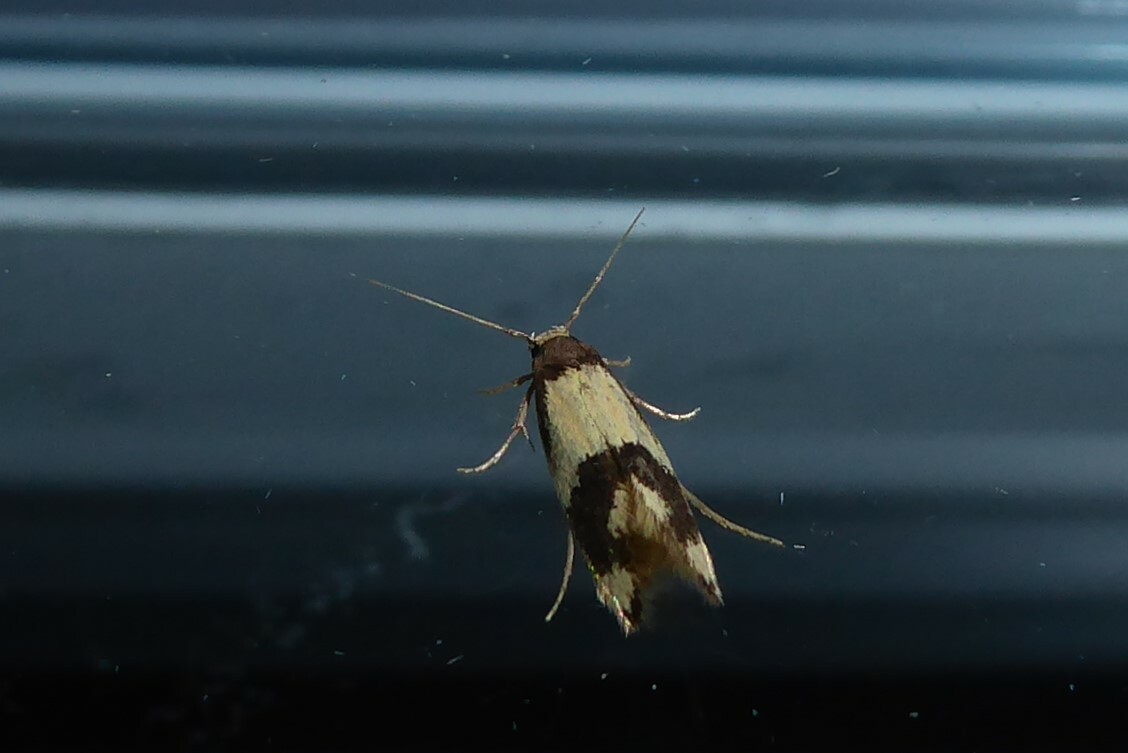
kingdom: Animalia
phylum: Arthropoda
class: Insecta
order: Lepidoptera
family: Tineidae
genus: Opogona
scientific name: Opogona comptella
